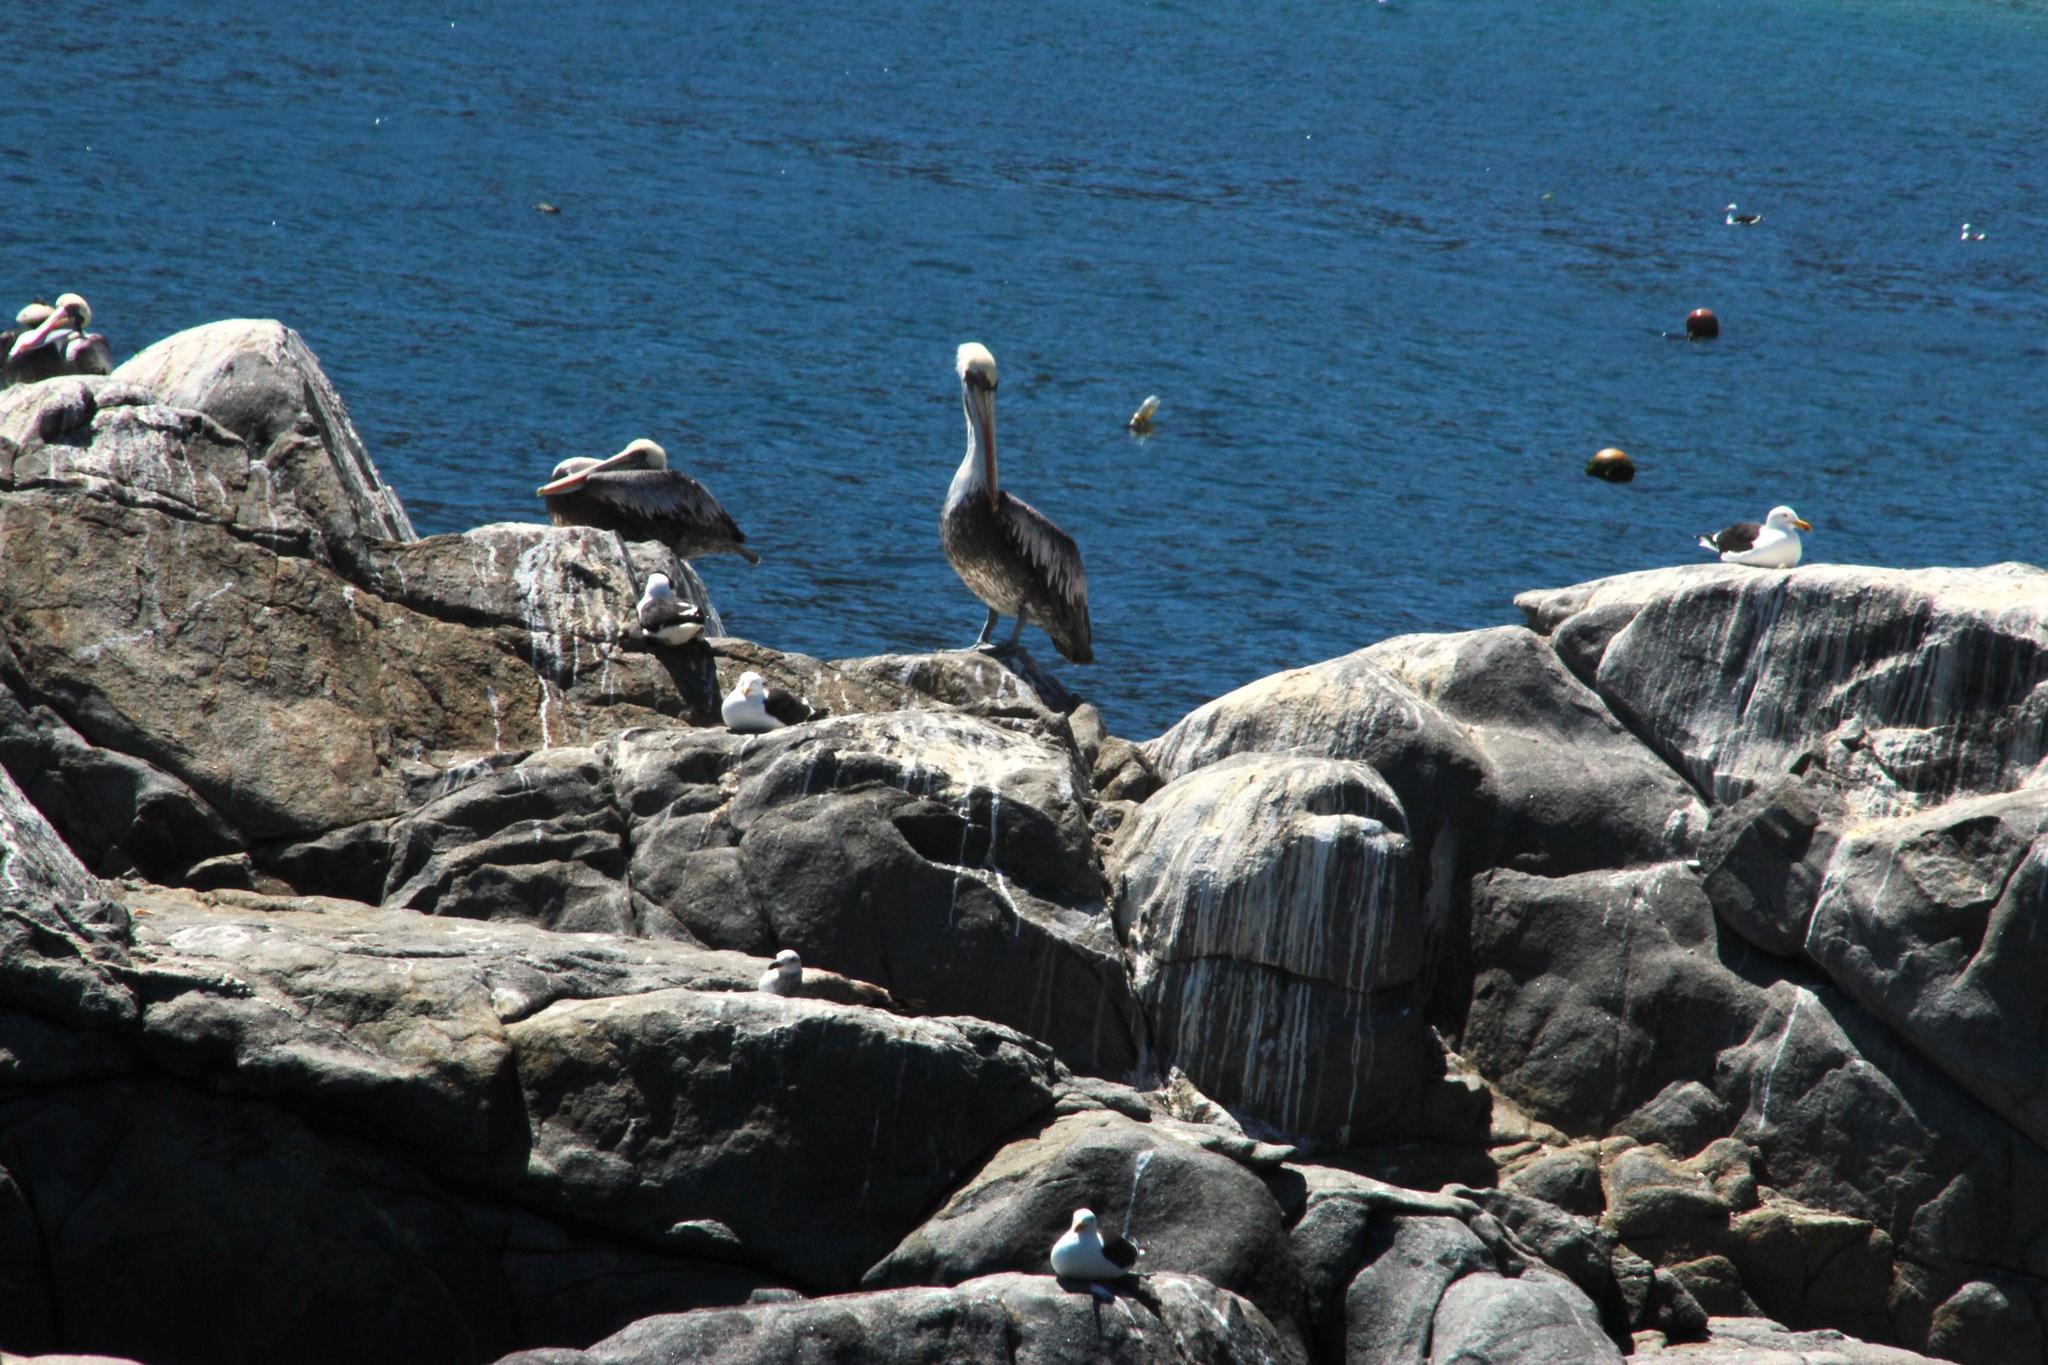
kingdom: Animalia
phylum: Chordata
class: Aves
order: Pelecaniformes
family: Pelecanidae
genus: Pelecanus
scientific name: Pelecanus thagus
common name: Peruvian pelican
